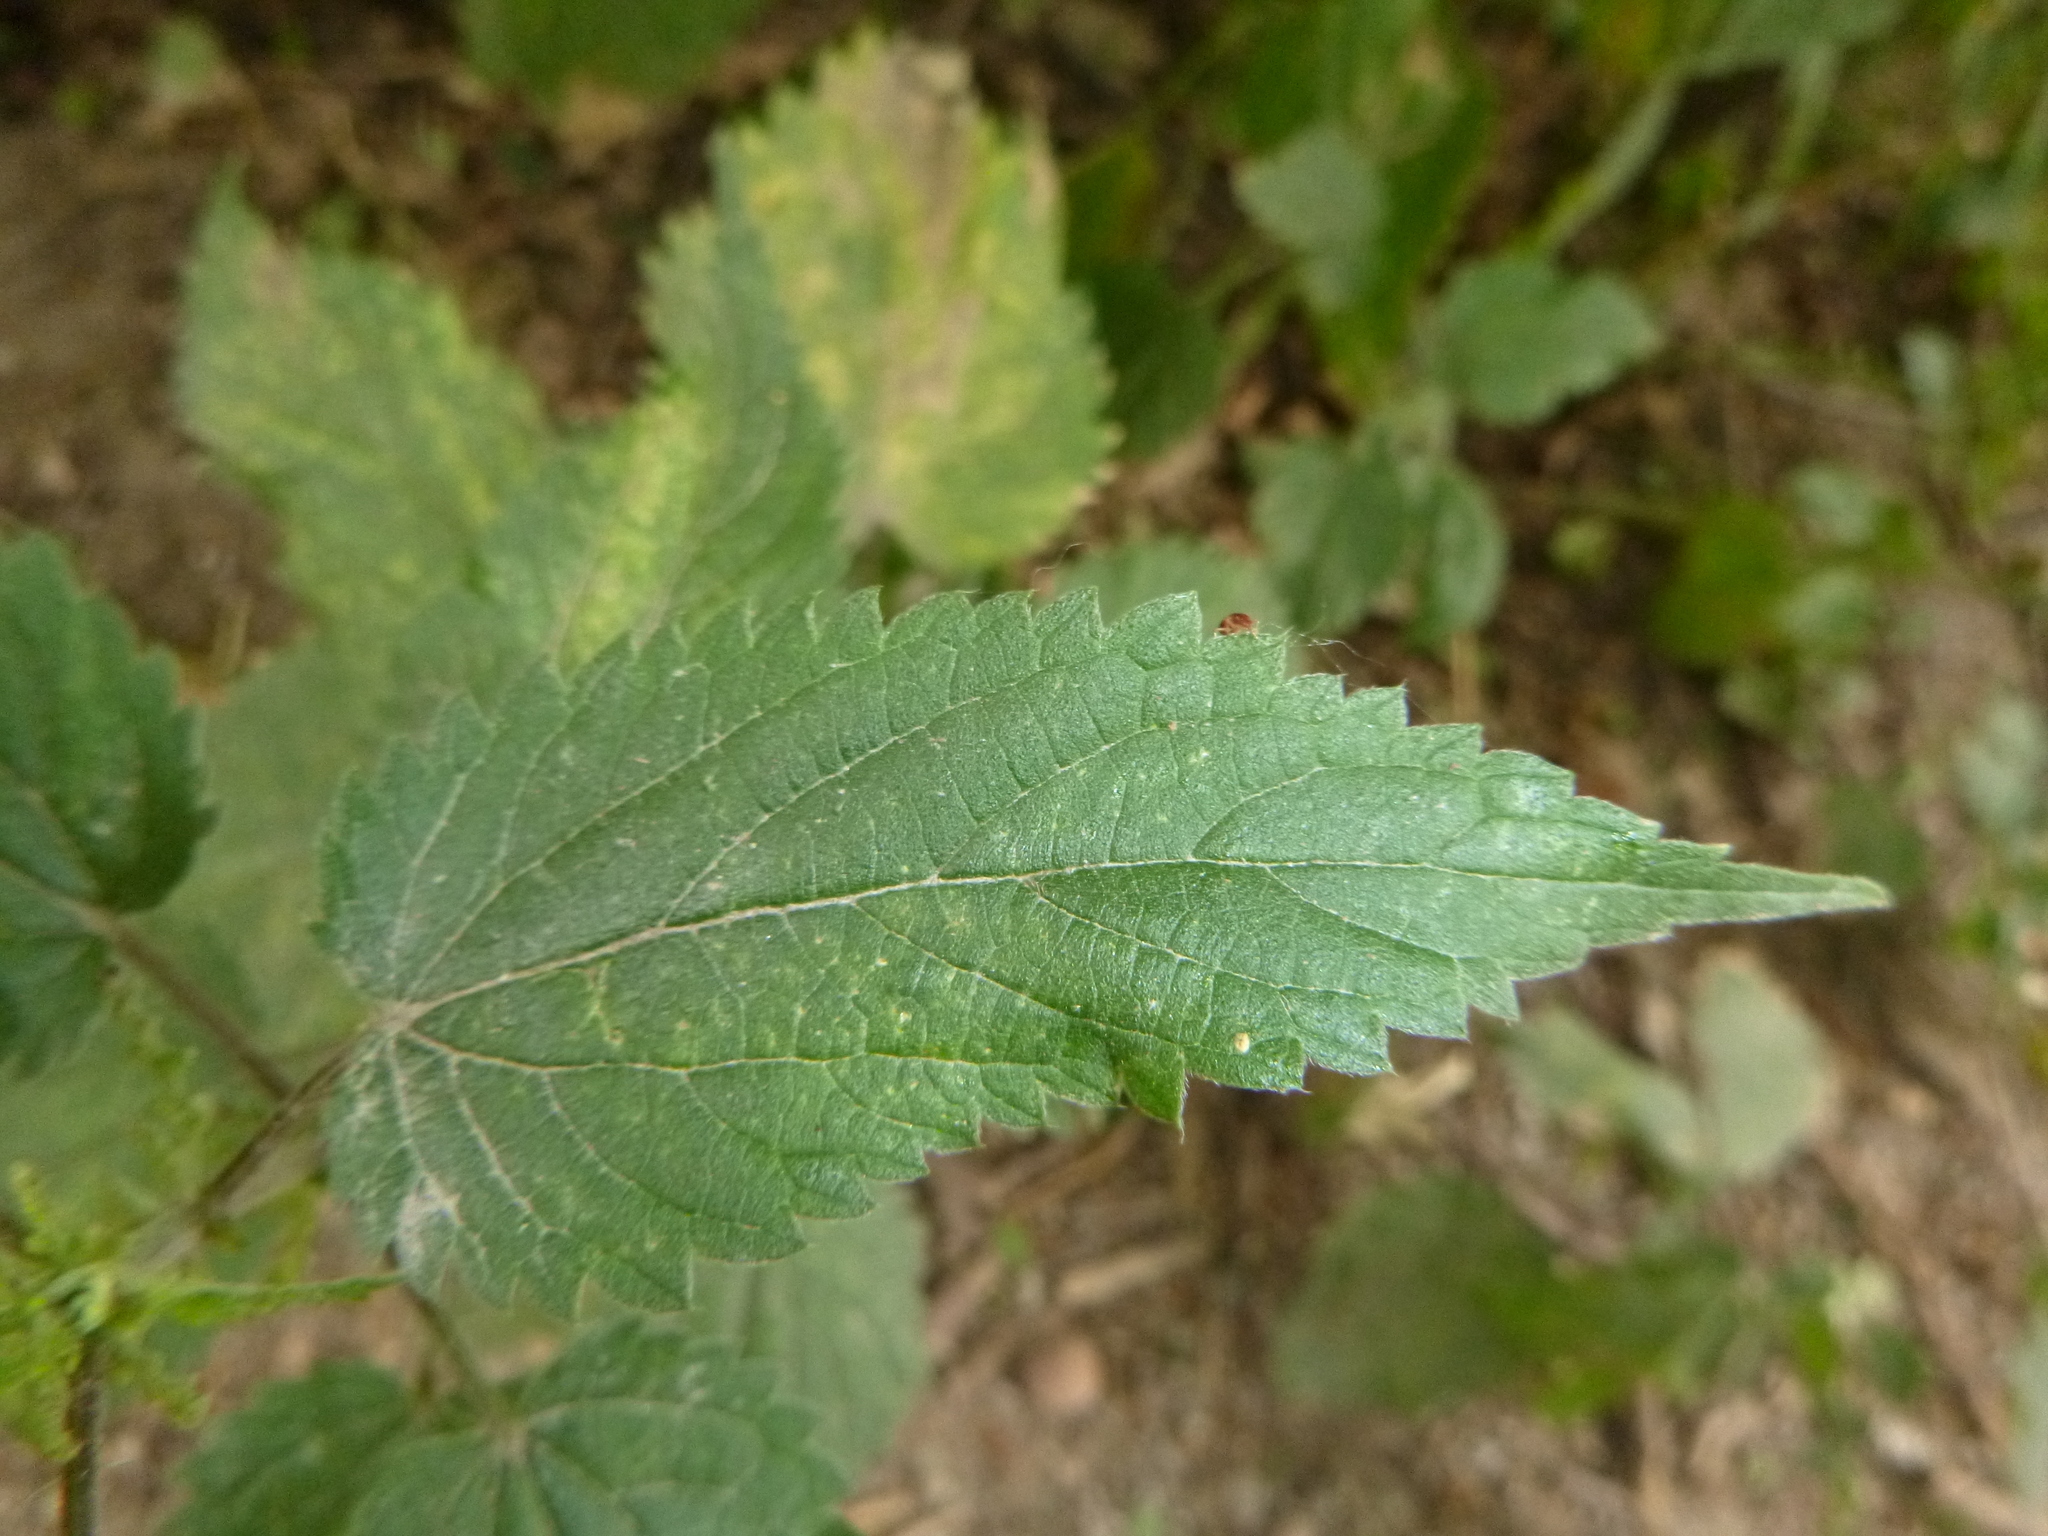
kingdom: Plantae
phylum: Tracheophyta
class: Magnoliopsida
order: Rosales
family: Urticaceae
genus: Urtica
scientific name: Urtica dioica
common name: Common nettle
